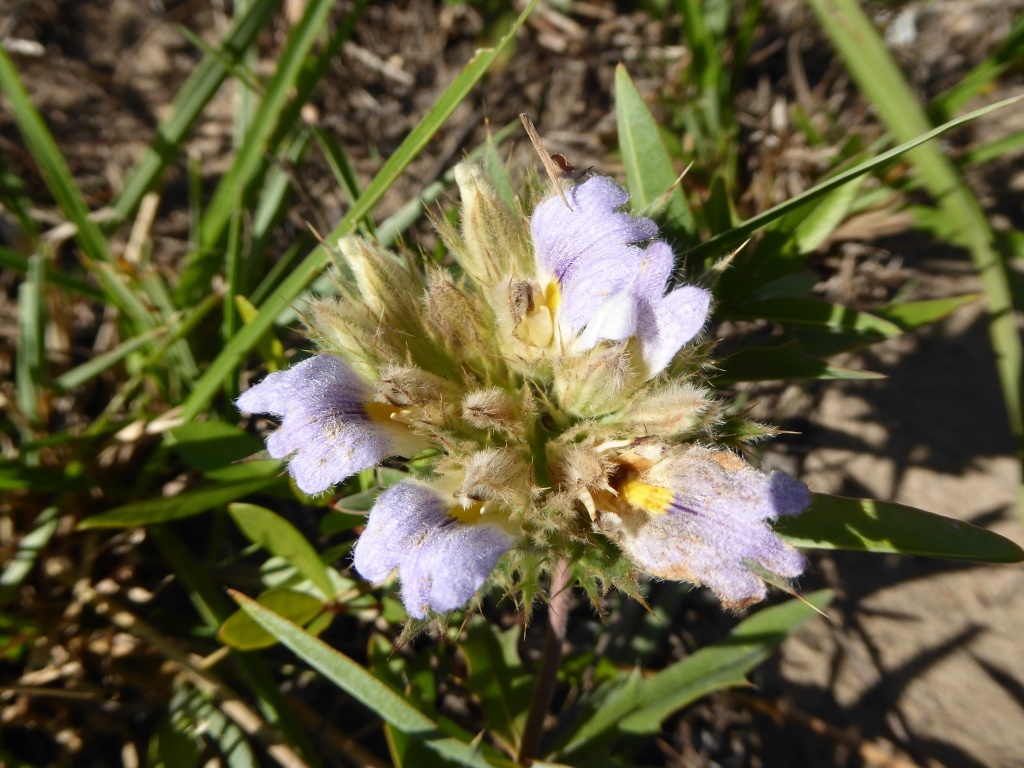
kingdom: Plantae
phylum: Tracheophyta
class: Magnoliopsida
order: Lamiales
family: Acanthaceae
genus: Blepharis
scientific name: Blepharis sericea
